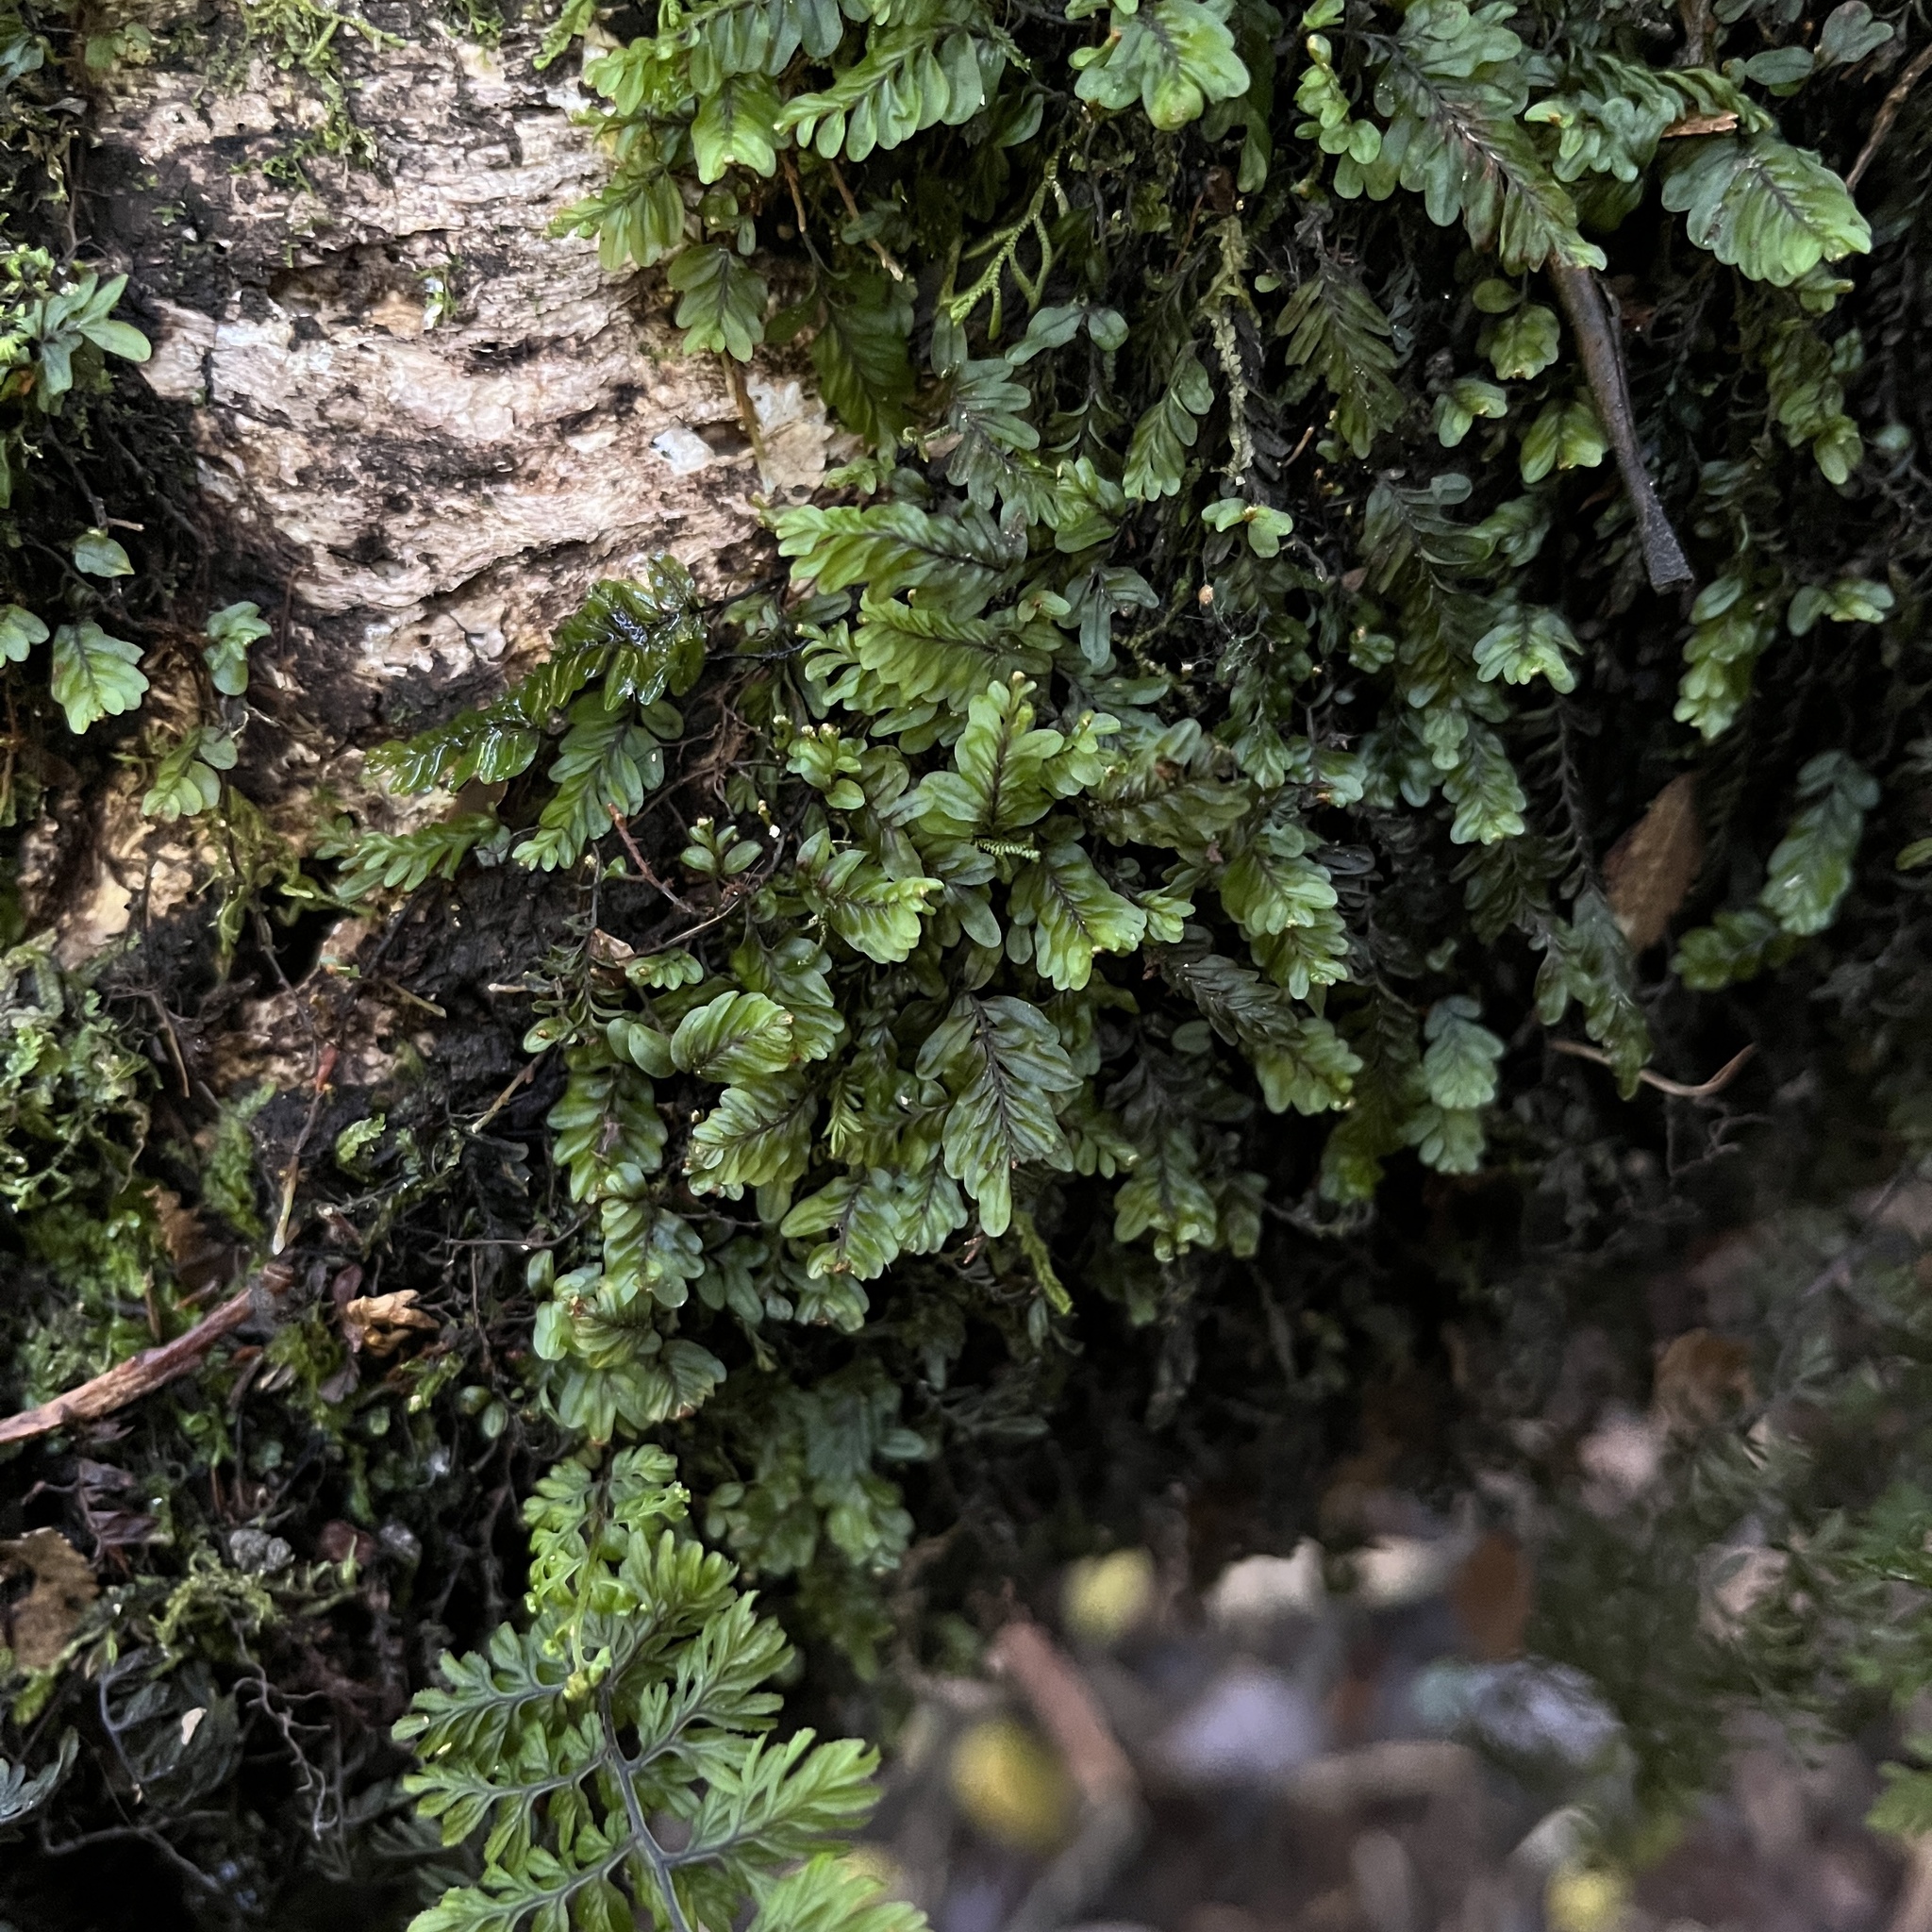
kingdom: Plantae
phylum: Tracheophyta
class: Polypodiopsida
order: Hymenophyllales
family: Hymenophyllaceae
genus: Hymenophyllum
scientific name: Hymenophyllum caespitosum
